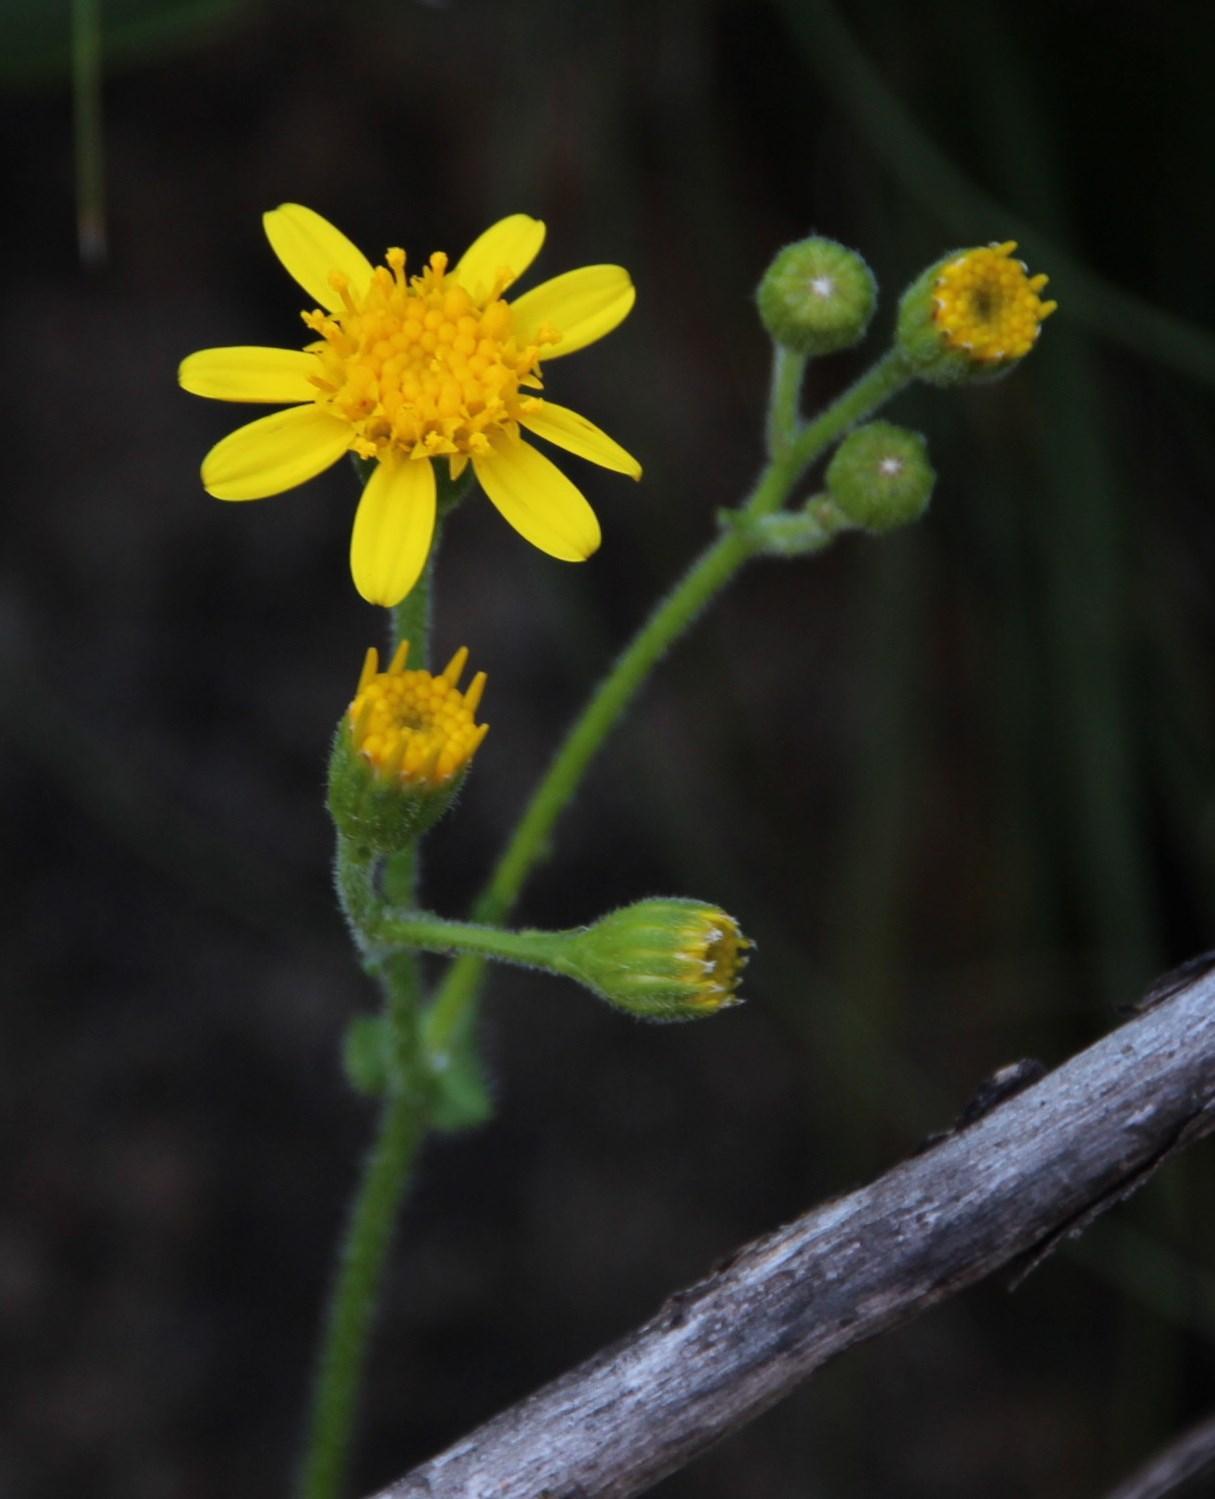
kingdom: Plantae
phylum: Tracheophyta
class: Magnoliopsida
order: Asterales
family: Asteraceae
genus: Cineraria
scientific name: Cineraria geifolia
